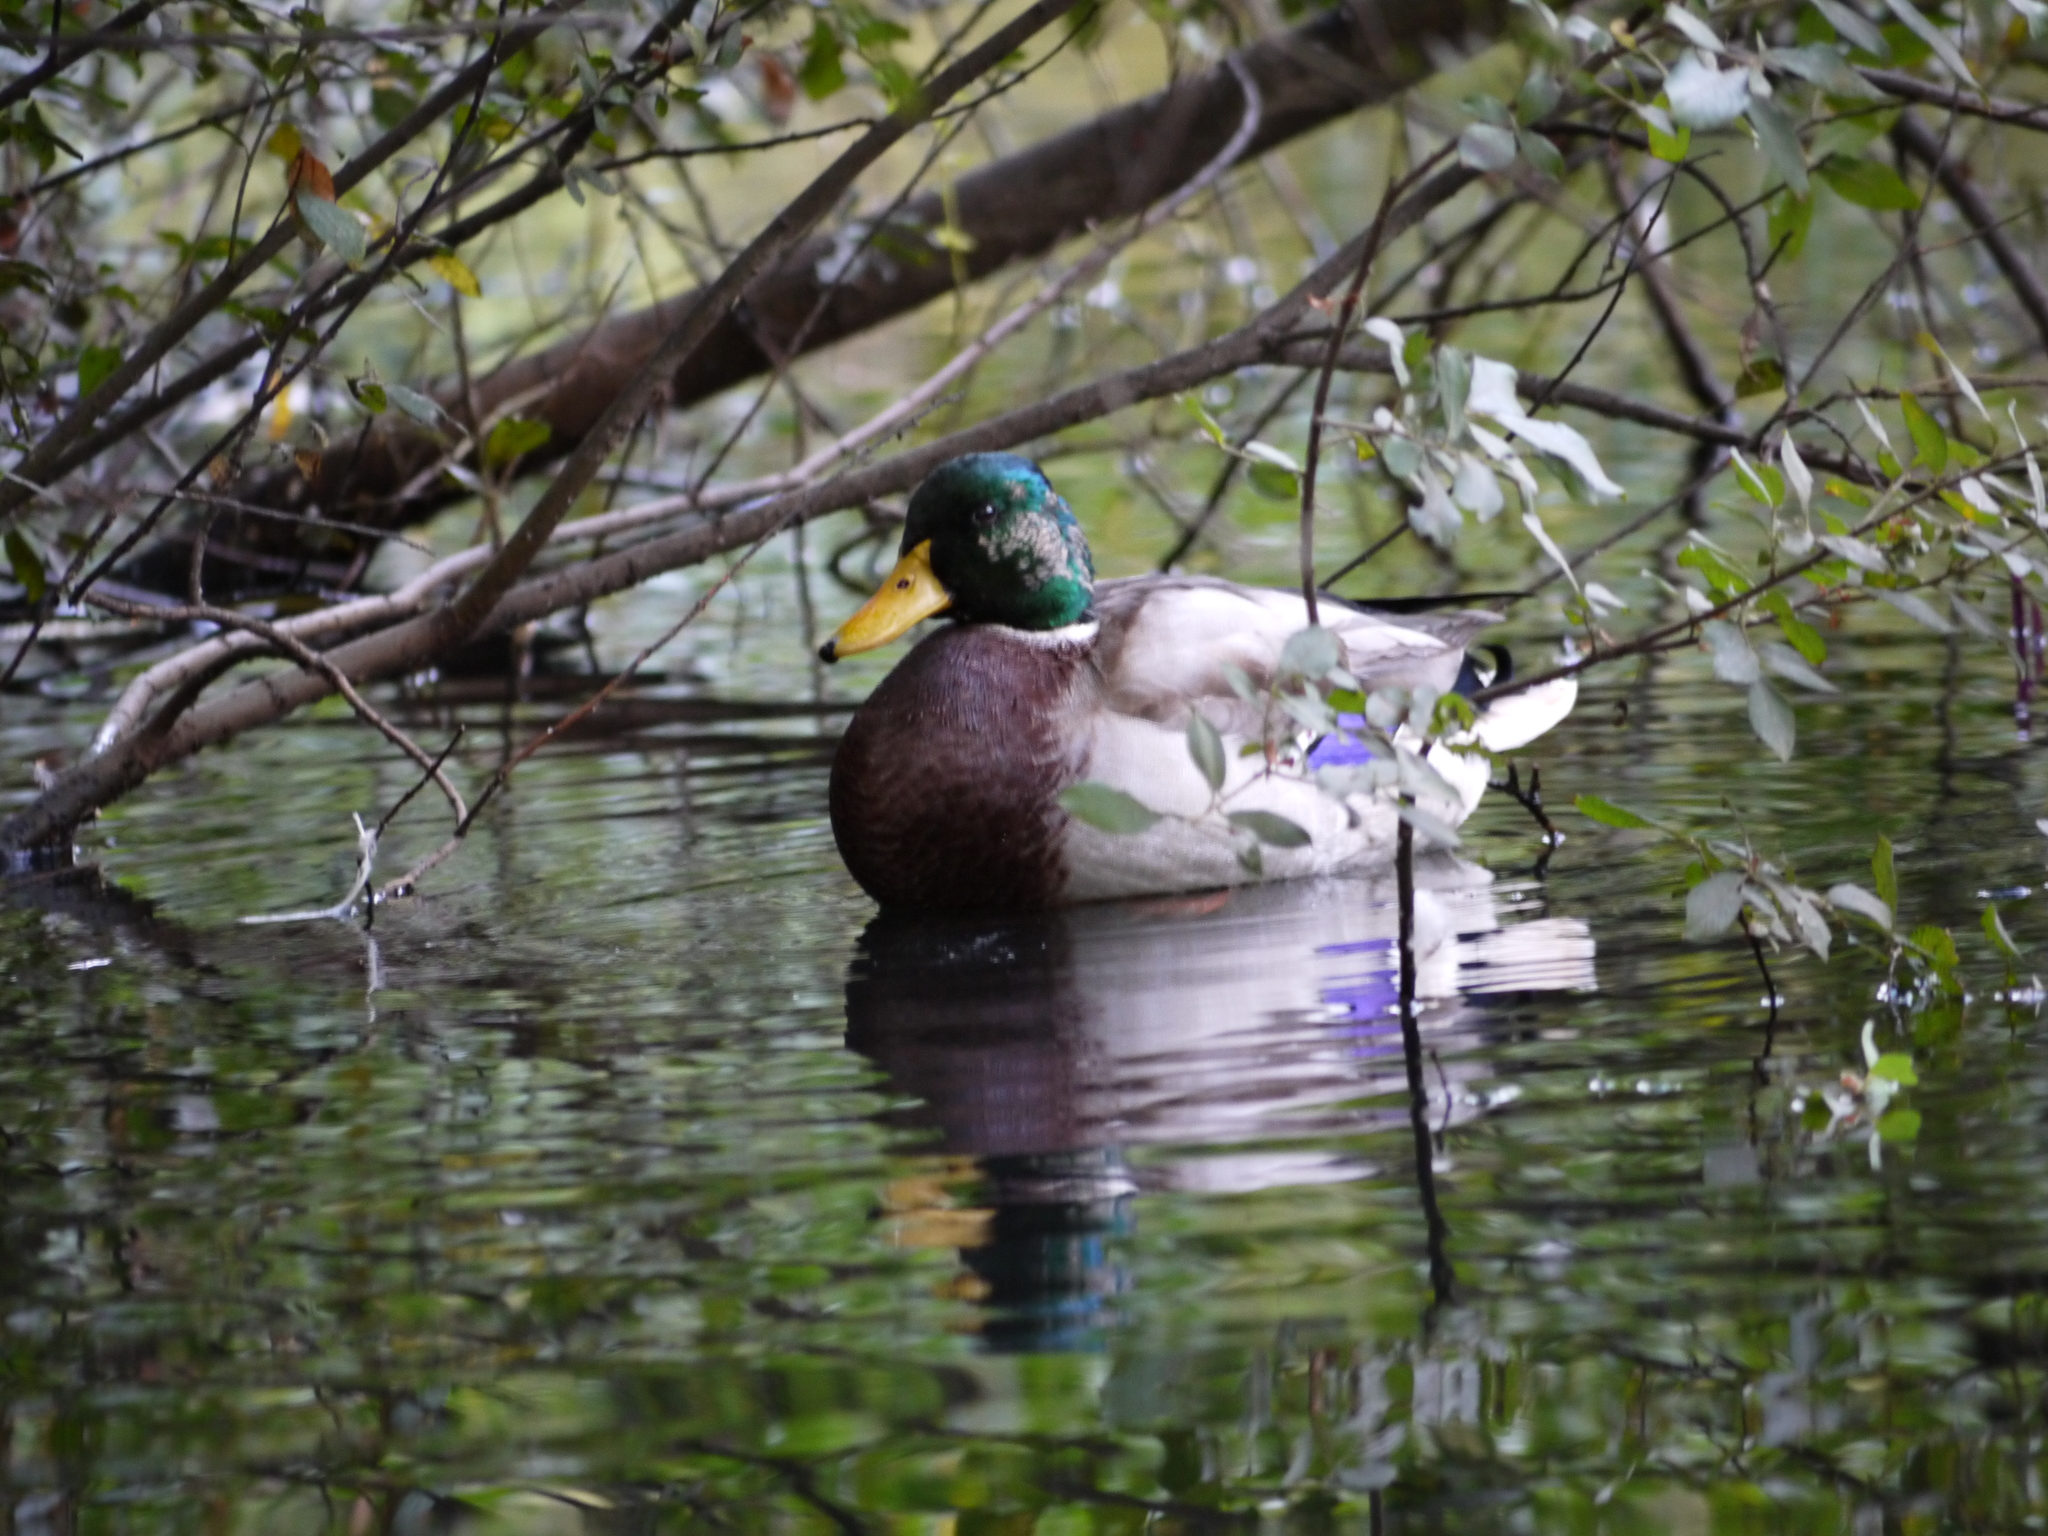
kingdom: Animalia
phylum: Chordata
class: Aves
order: Anseriformes
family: Anatidae
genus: Anas
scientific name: Anas platyrhynchos
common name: Mallard
